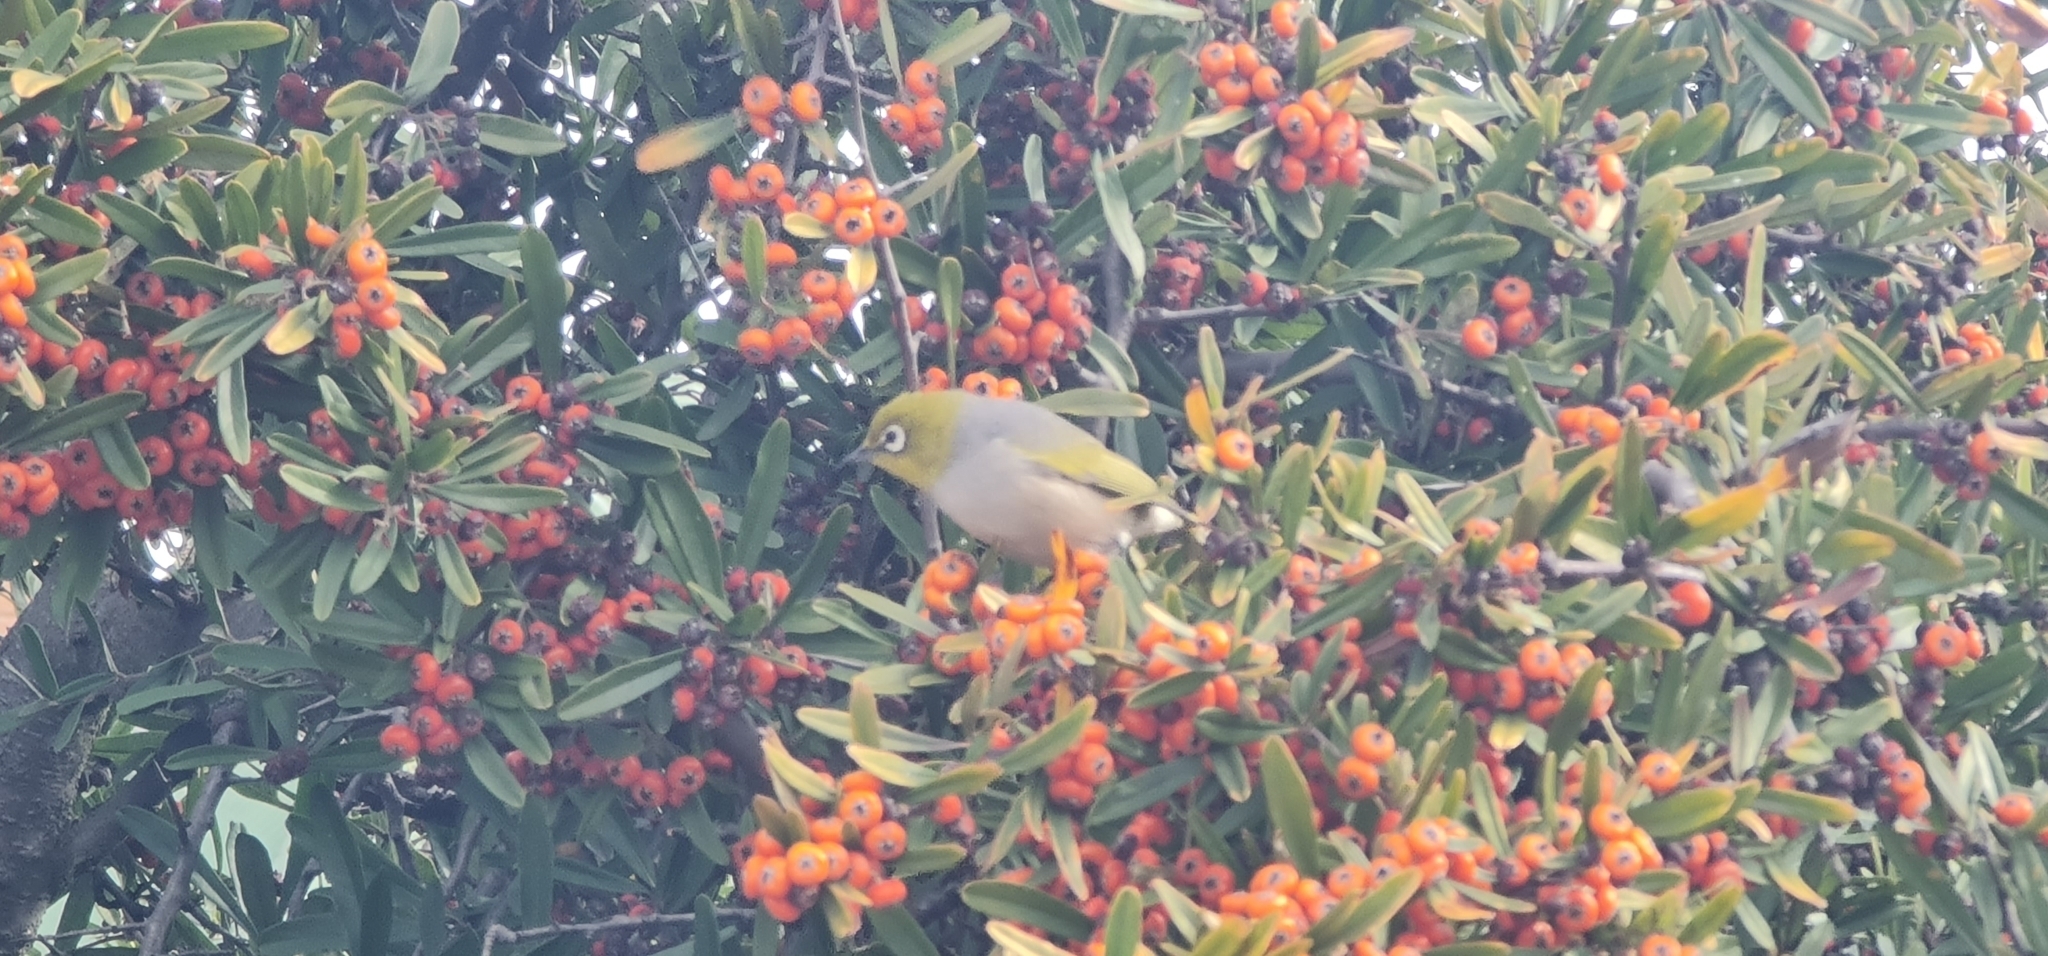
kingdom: Animalia
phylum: Chordata
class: Aves
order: Passeriformes
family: Zosteropidae
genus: Zosterops
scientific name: Zosterops lateralis
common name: Silvereye
